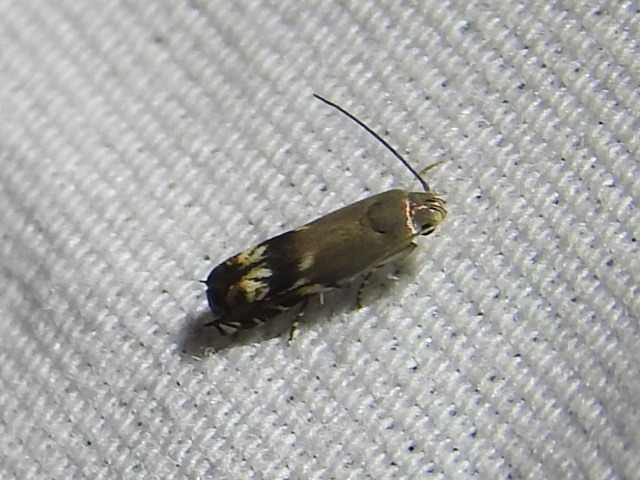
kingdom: Animalia
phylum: Arthropoda
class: Insecta
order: Lepidoptera
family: Gelechiidae
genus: Calliprora
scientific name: Calliprora sexstrigella
